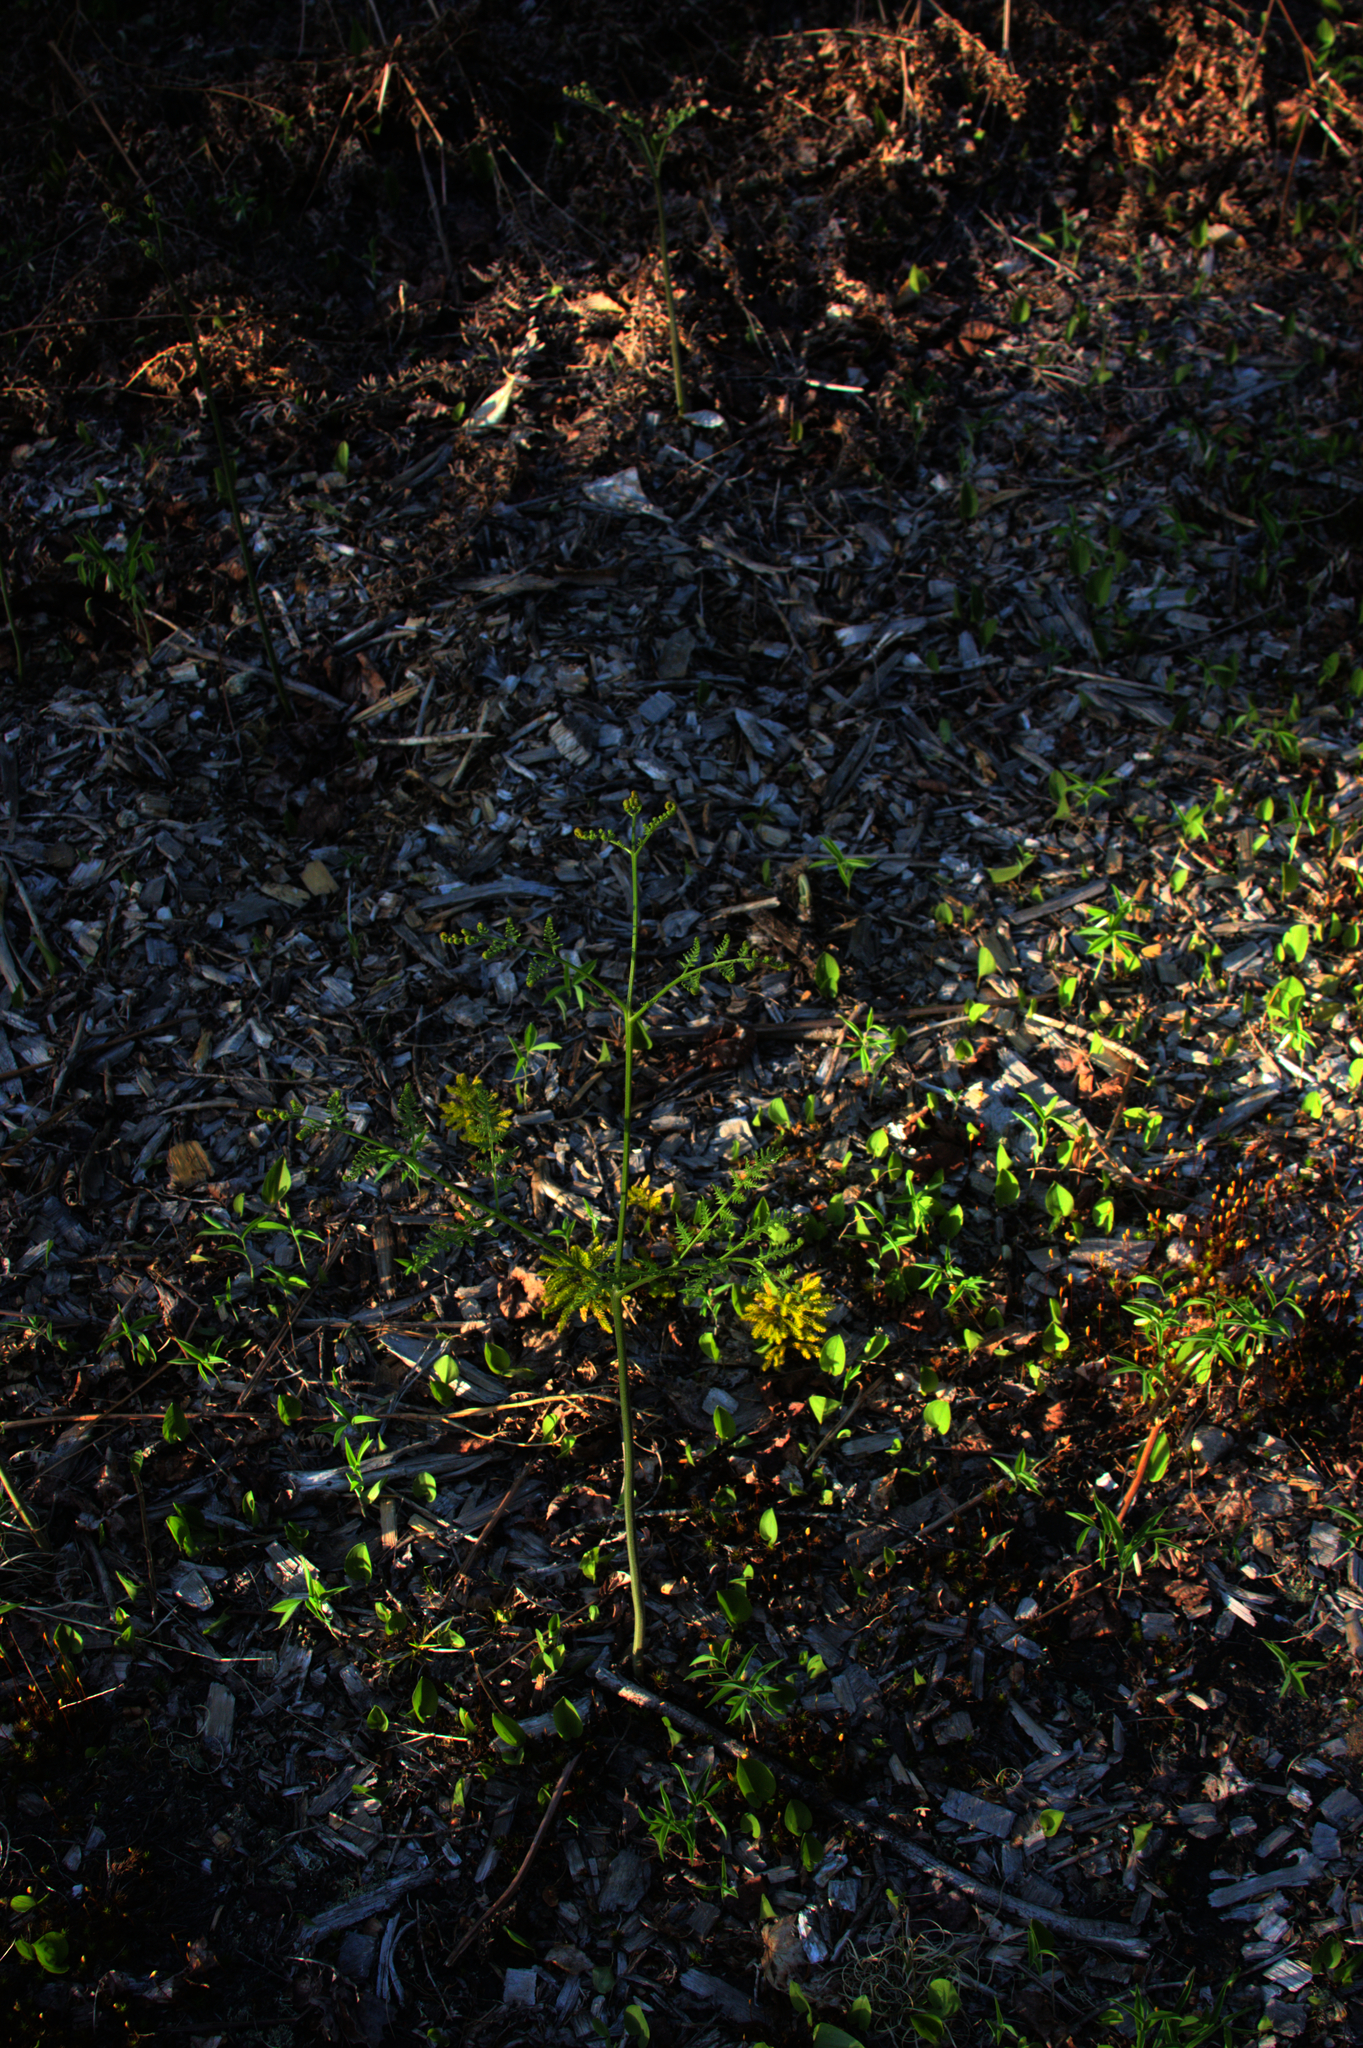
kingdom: Plantae
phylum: Tracheophyta
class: Polypodiopsida
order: Polypodiales
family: Dennstaedtiaceae
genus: Pteridium
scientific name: Pteridium aquilinum
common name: Bracken
